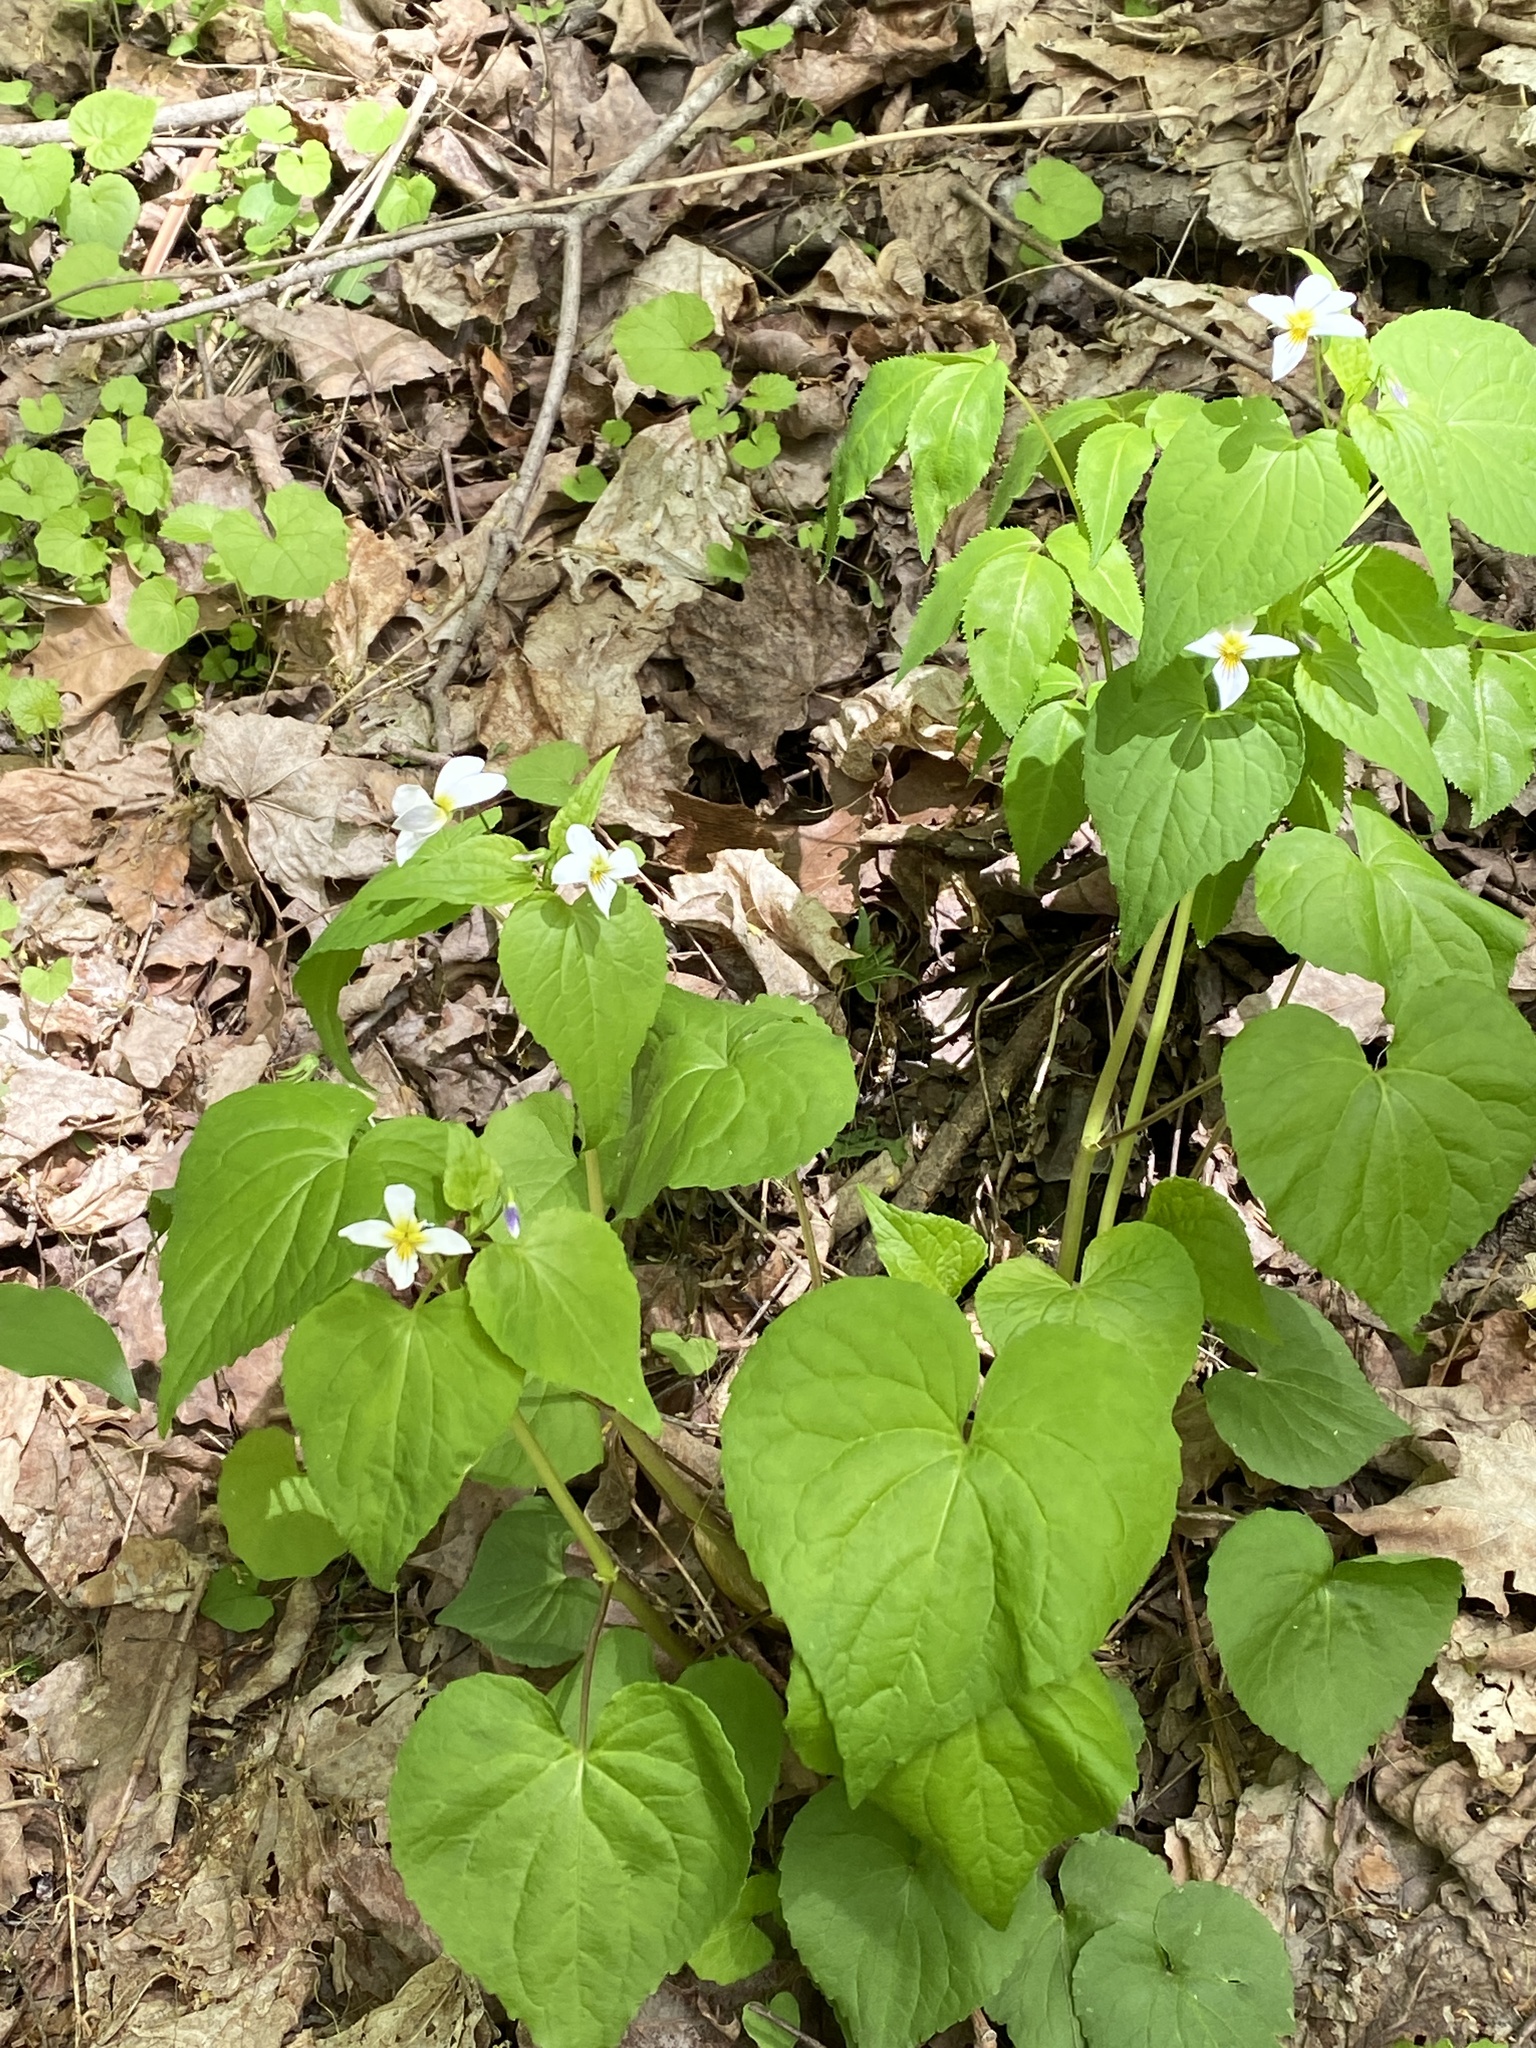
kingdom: Plantae
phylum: Tracheophyta
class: Magnoliopsida
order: Malpighiales
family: Violaceae
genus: Viola
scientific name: Viola canadensis
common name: Canada violet
